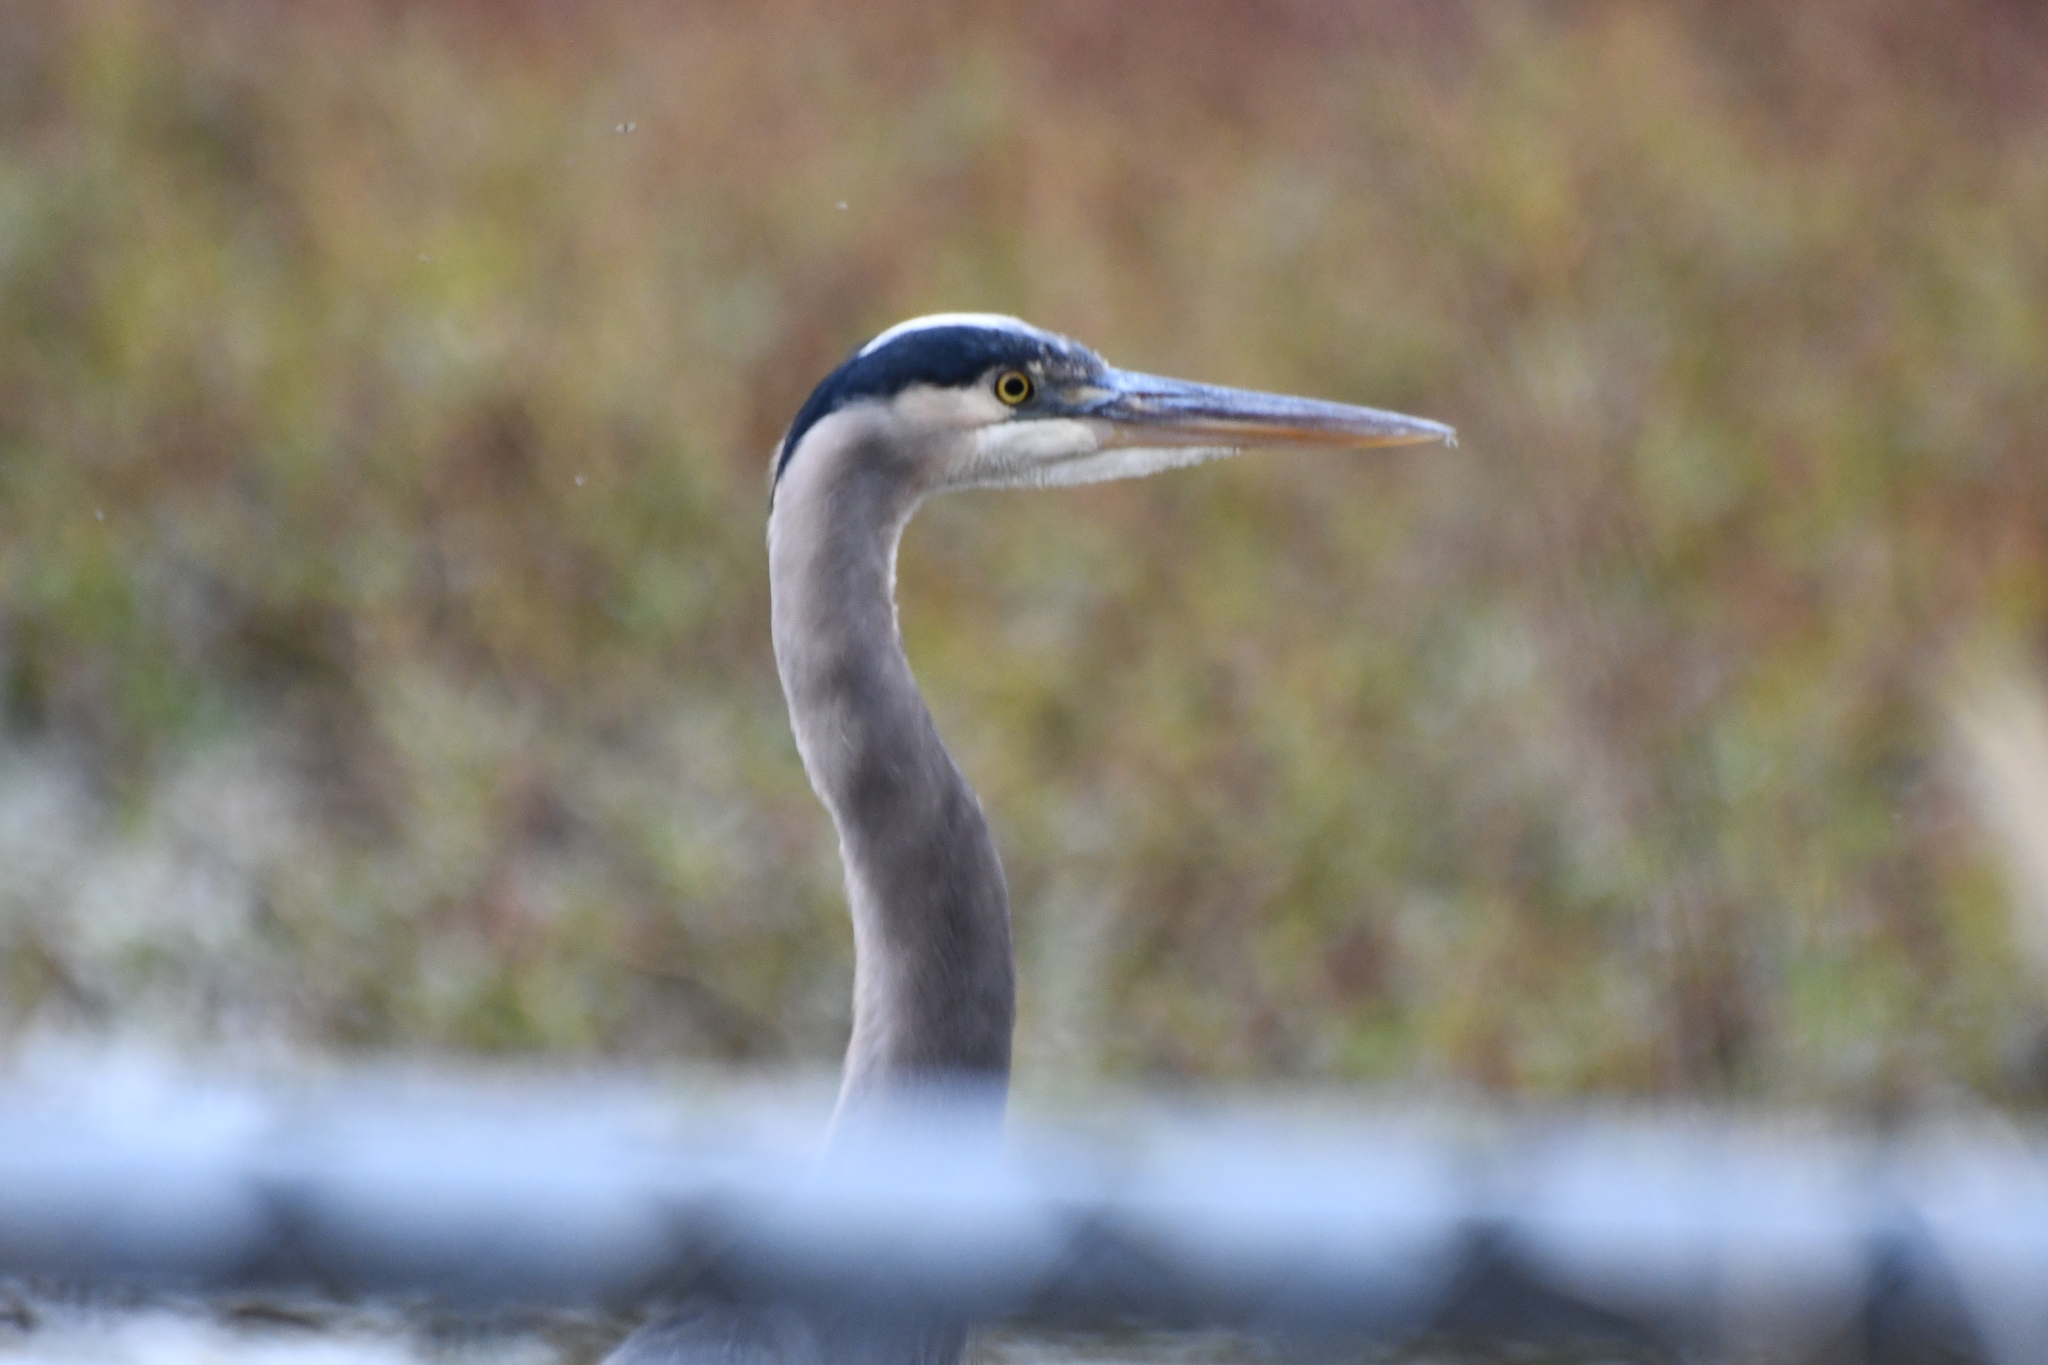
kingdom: Animalia
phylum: Chordata
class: Aves
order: Pelecaniformes
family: Ardeidae
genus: Ardea
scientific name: Ardea herodias
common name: Great blue heron
